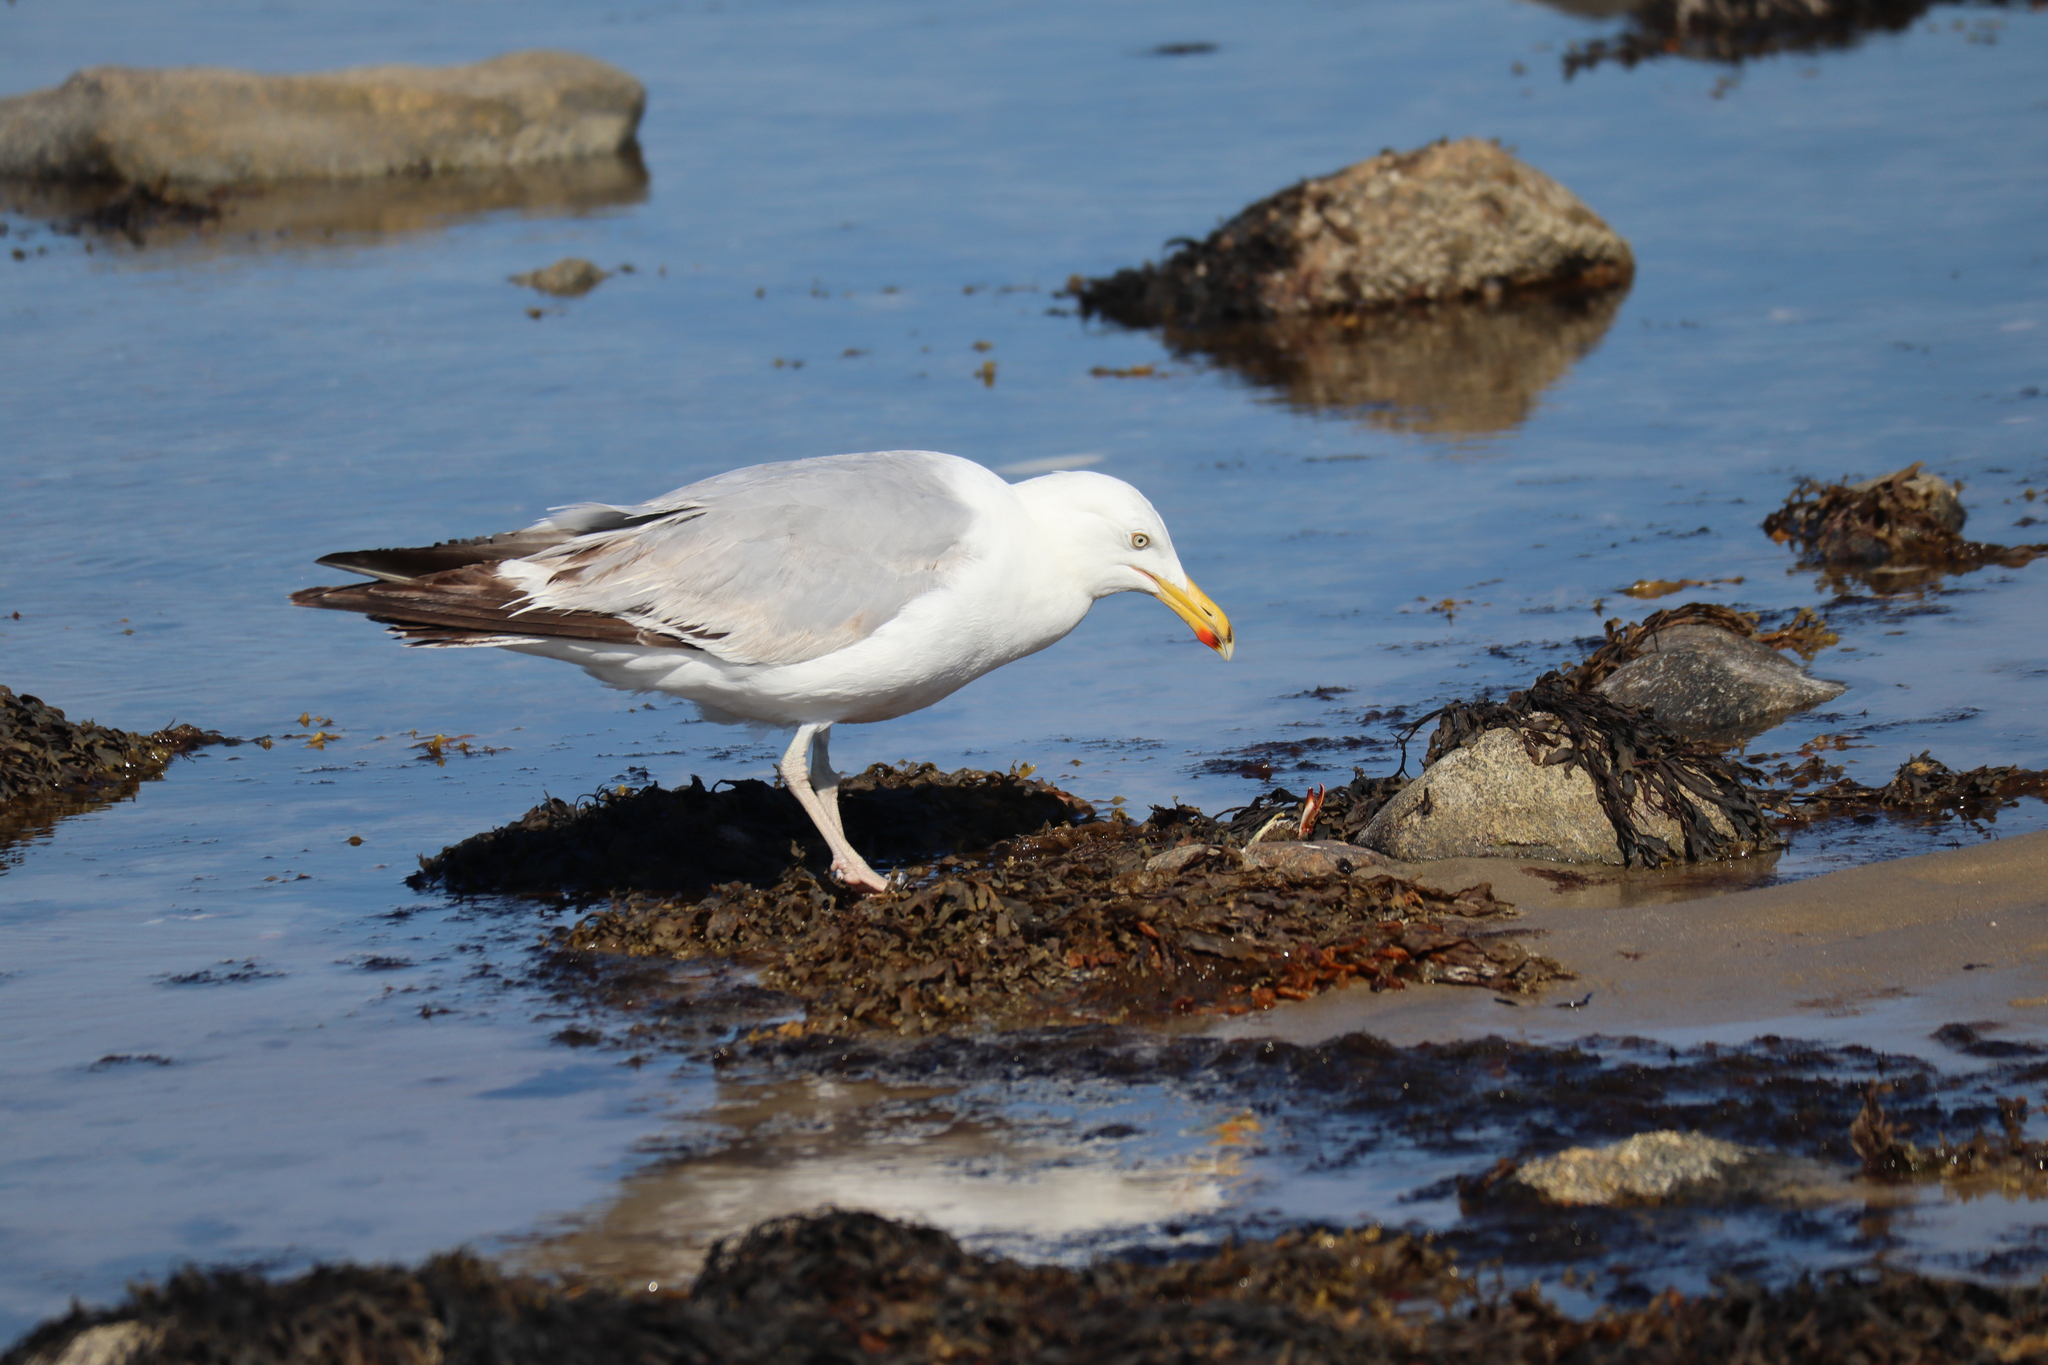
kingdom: Animalia
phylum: Chordata
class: Aves
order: Charadriiformes
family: Laridae
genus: Larus
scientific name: Larus argentatus
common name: Herring gull
